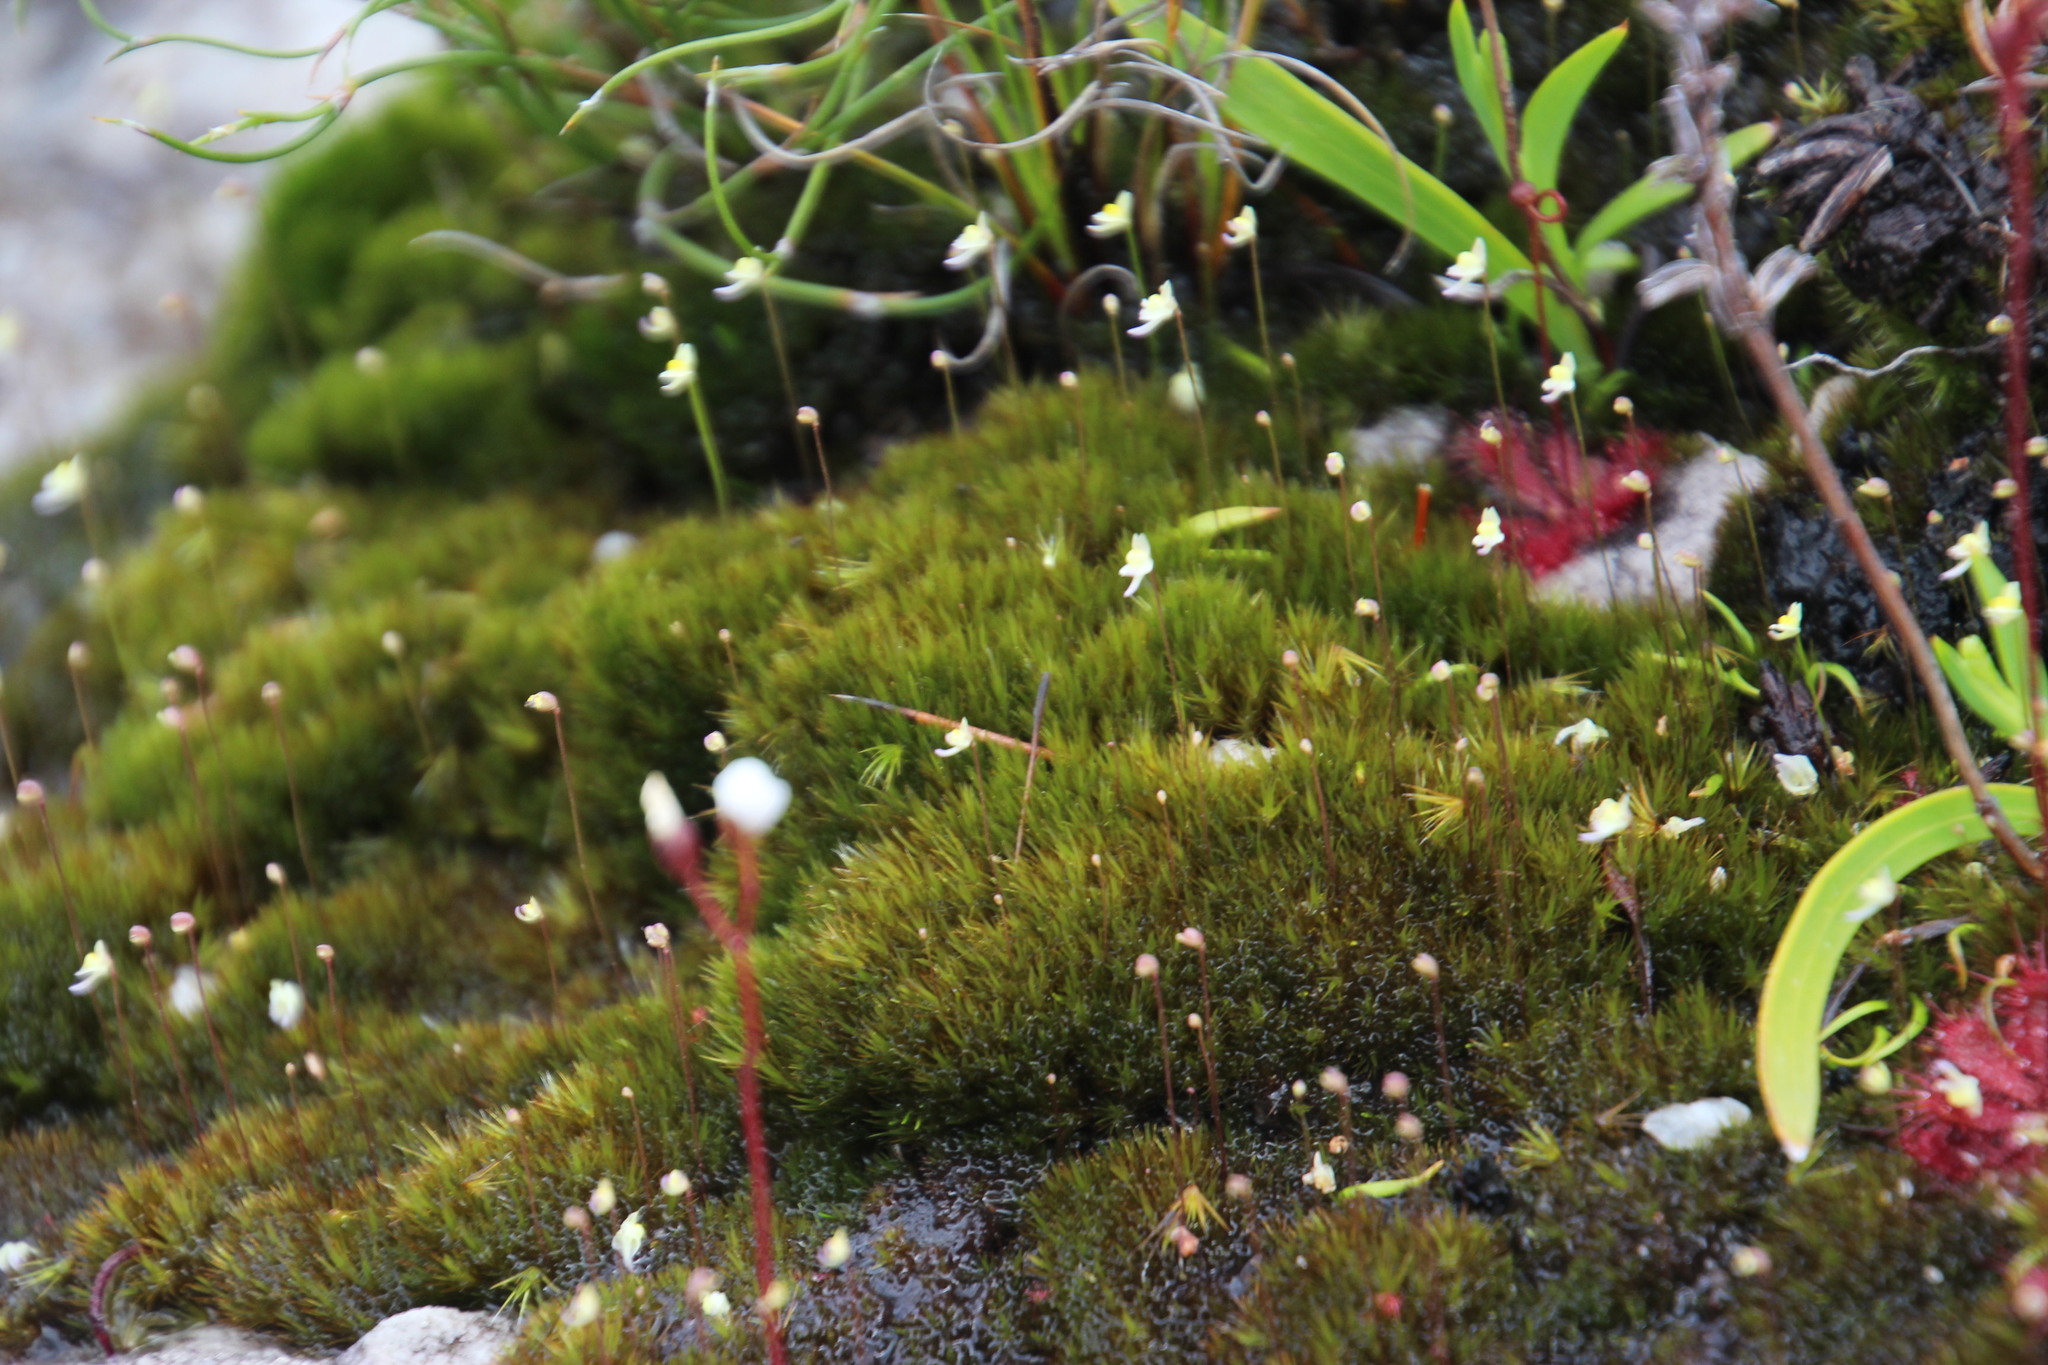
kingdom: Plantae
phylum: Tracheophyta
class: Magnoliopsida
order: Lamiales
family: Lentibulariaceae
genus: Utricularia
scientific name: Utricularia bisquamata
